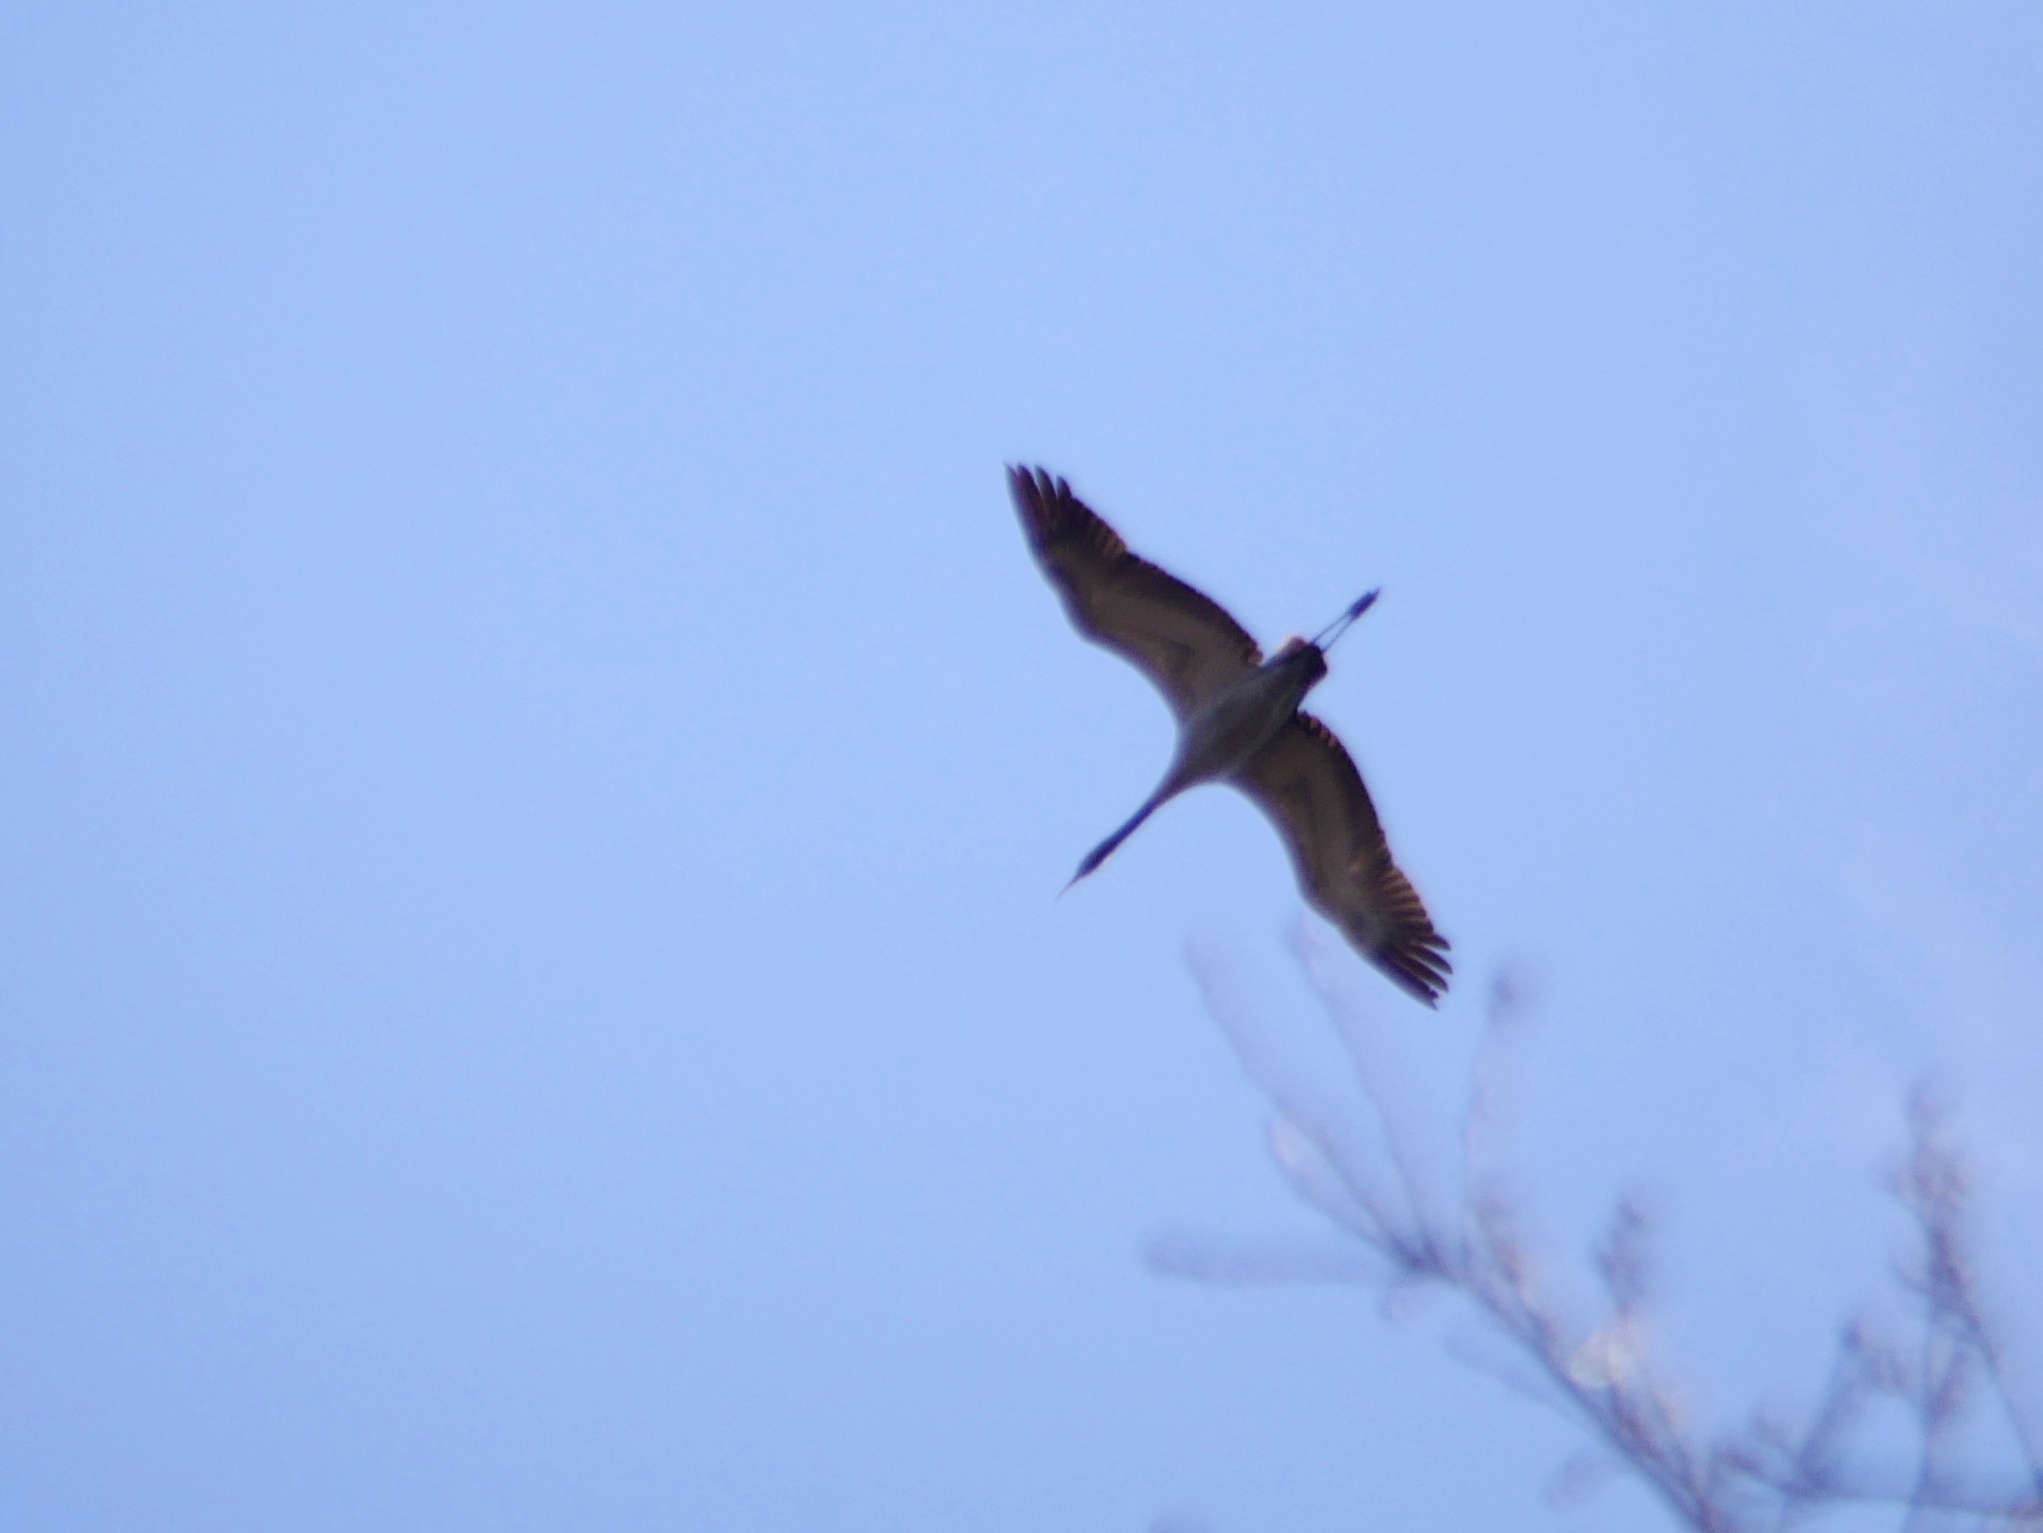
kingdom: Animalia
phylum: Chordata
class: Aves
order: Gruiformes
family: Gruidae
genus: Grus
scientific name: Grus grus
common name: Common crane
